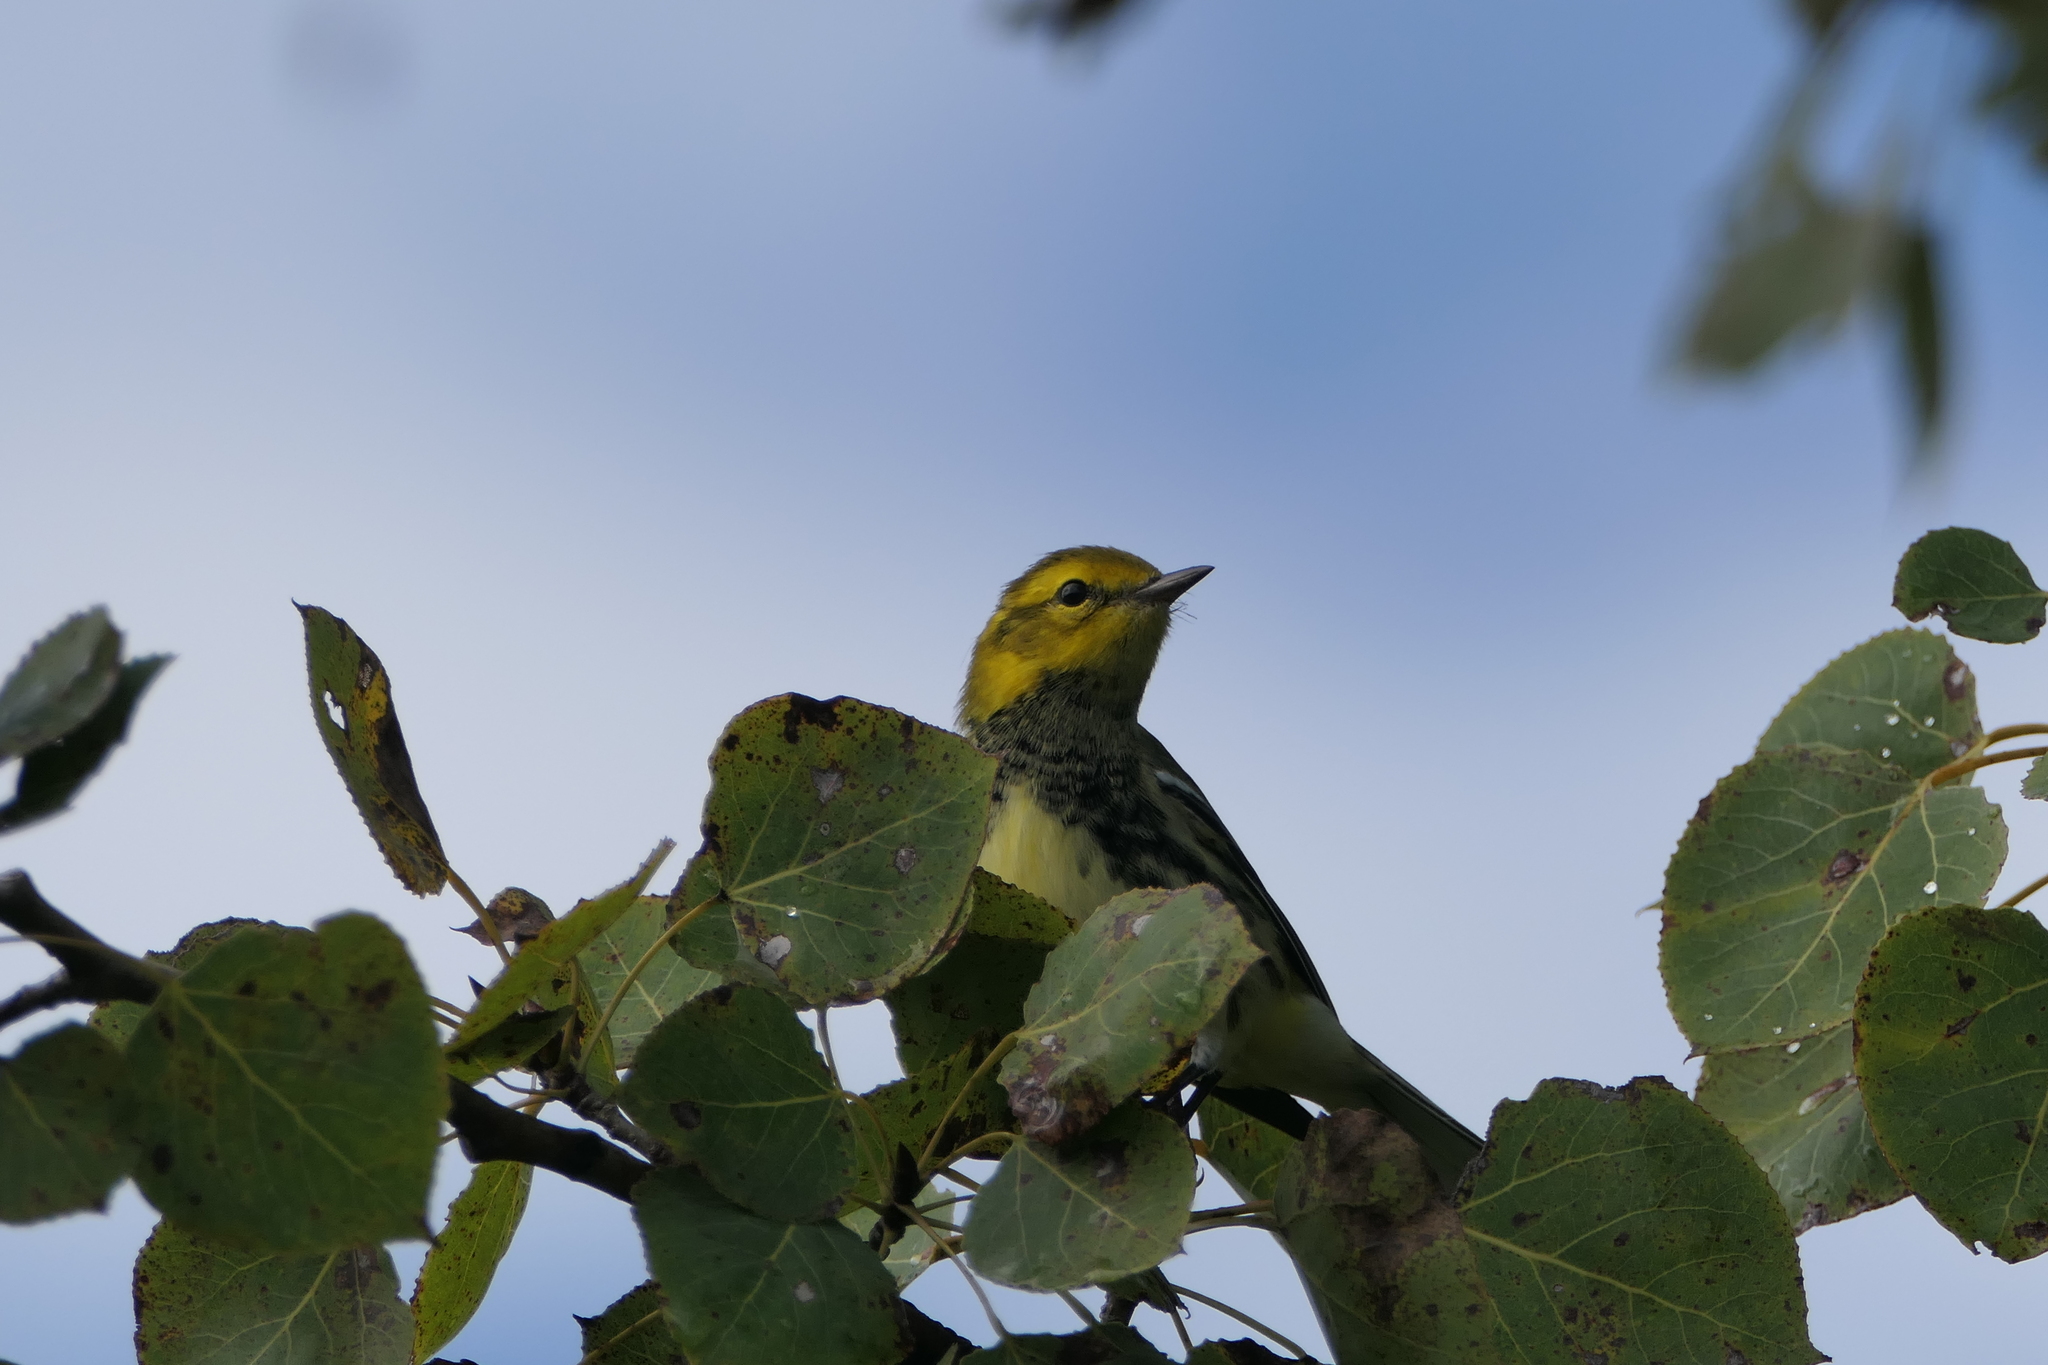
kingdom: Animalia
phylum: Chordata
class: Aves
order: Passeriformes
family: Parulidae
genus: Setophaga
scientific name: Setophaga virens
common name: Black-throated green warbler
